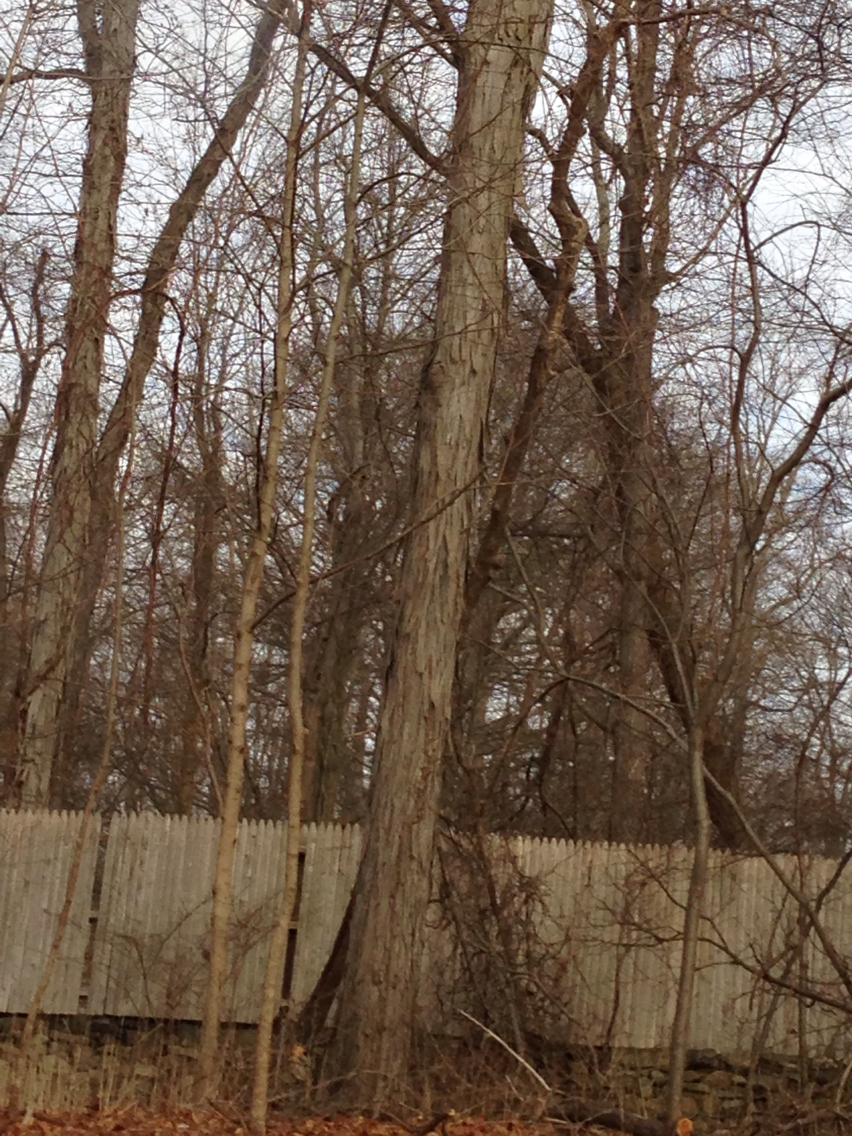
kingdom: Plantae
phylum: Tracheophyta
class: Magnoliopsida
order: Fagales
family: Juglandaceae
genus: Carya
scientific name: Carya ovata
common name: Shagbark hickory
